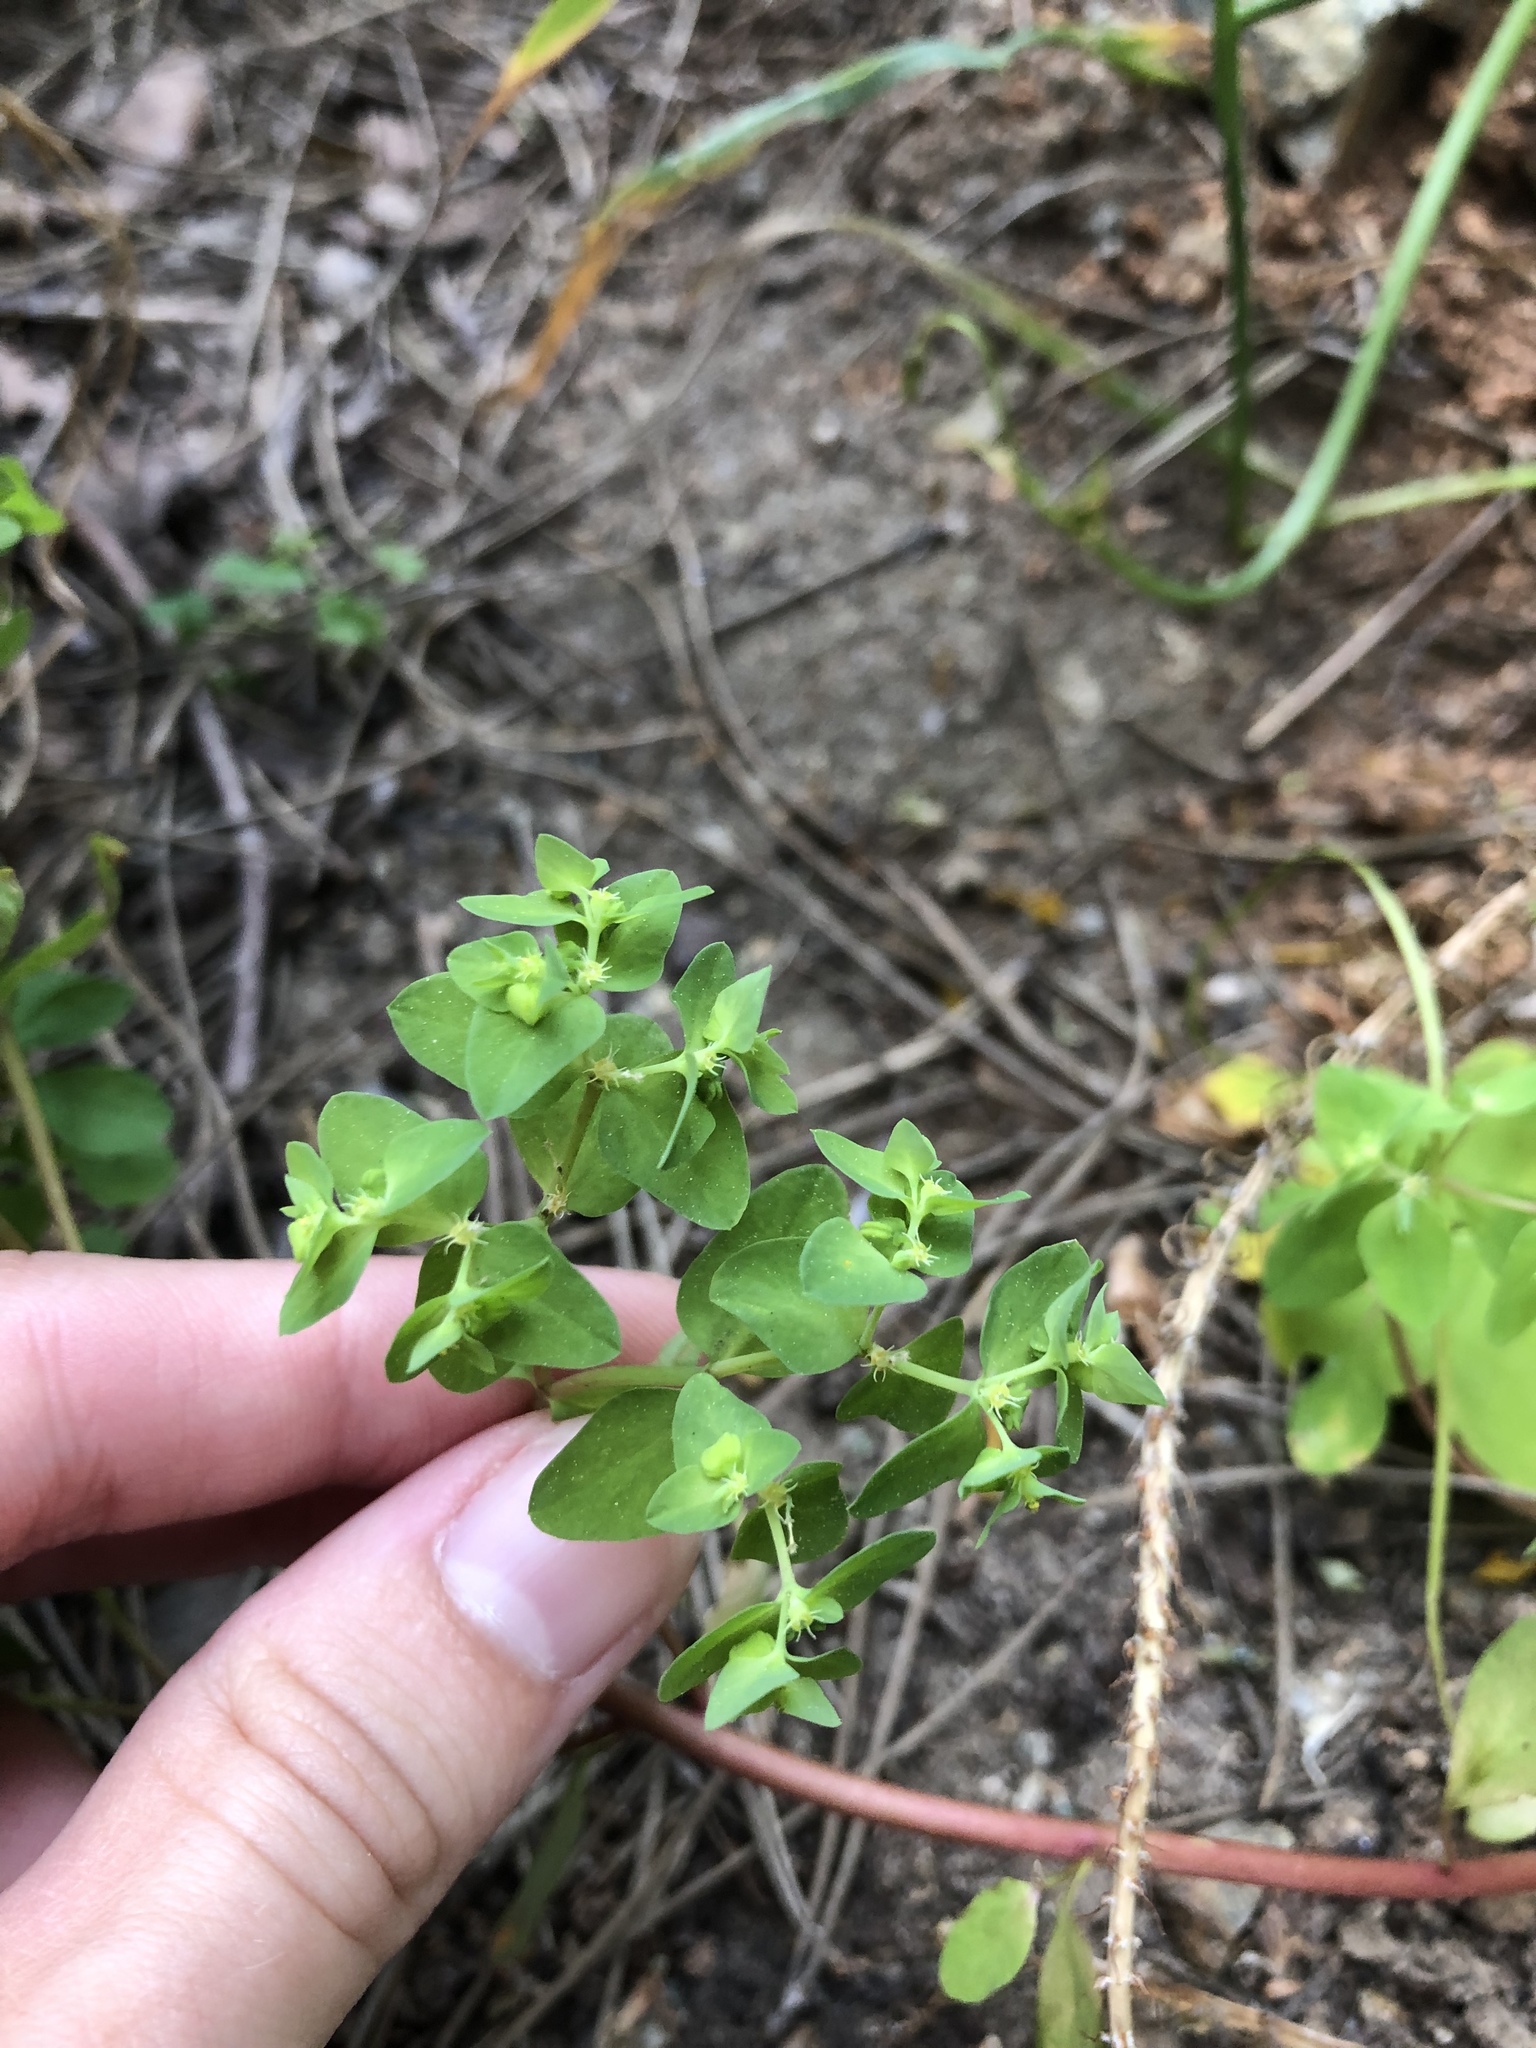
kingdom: Plantae
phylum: Tracheophyta
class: Magnoliopsida
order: Malpighiales
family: Euphorbiaceae
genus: Euphorbia
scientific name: Euphorbia peplus
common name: Petty spurge
